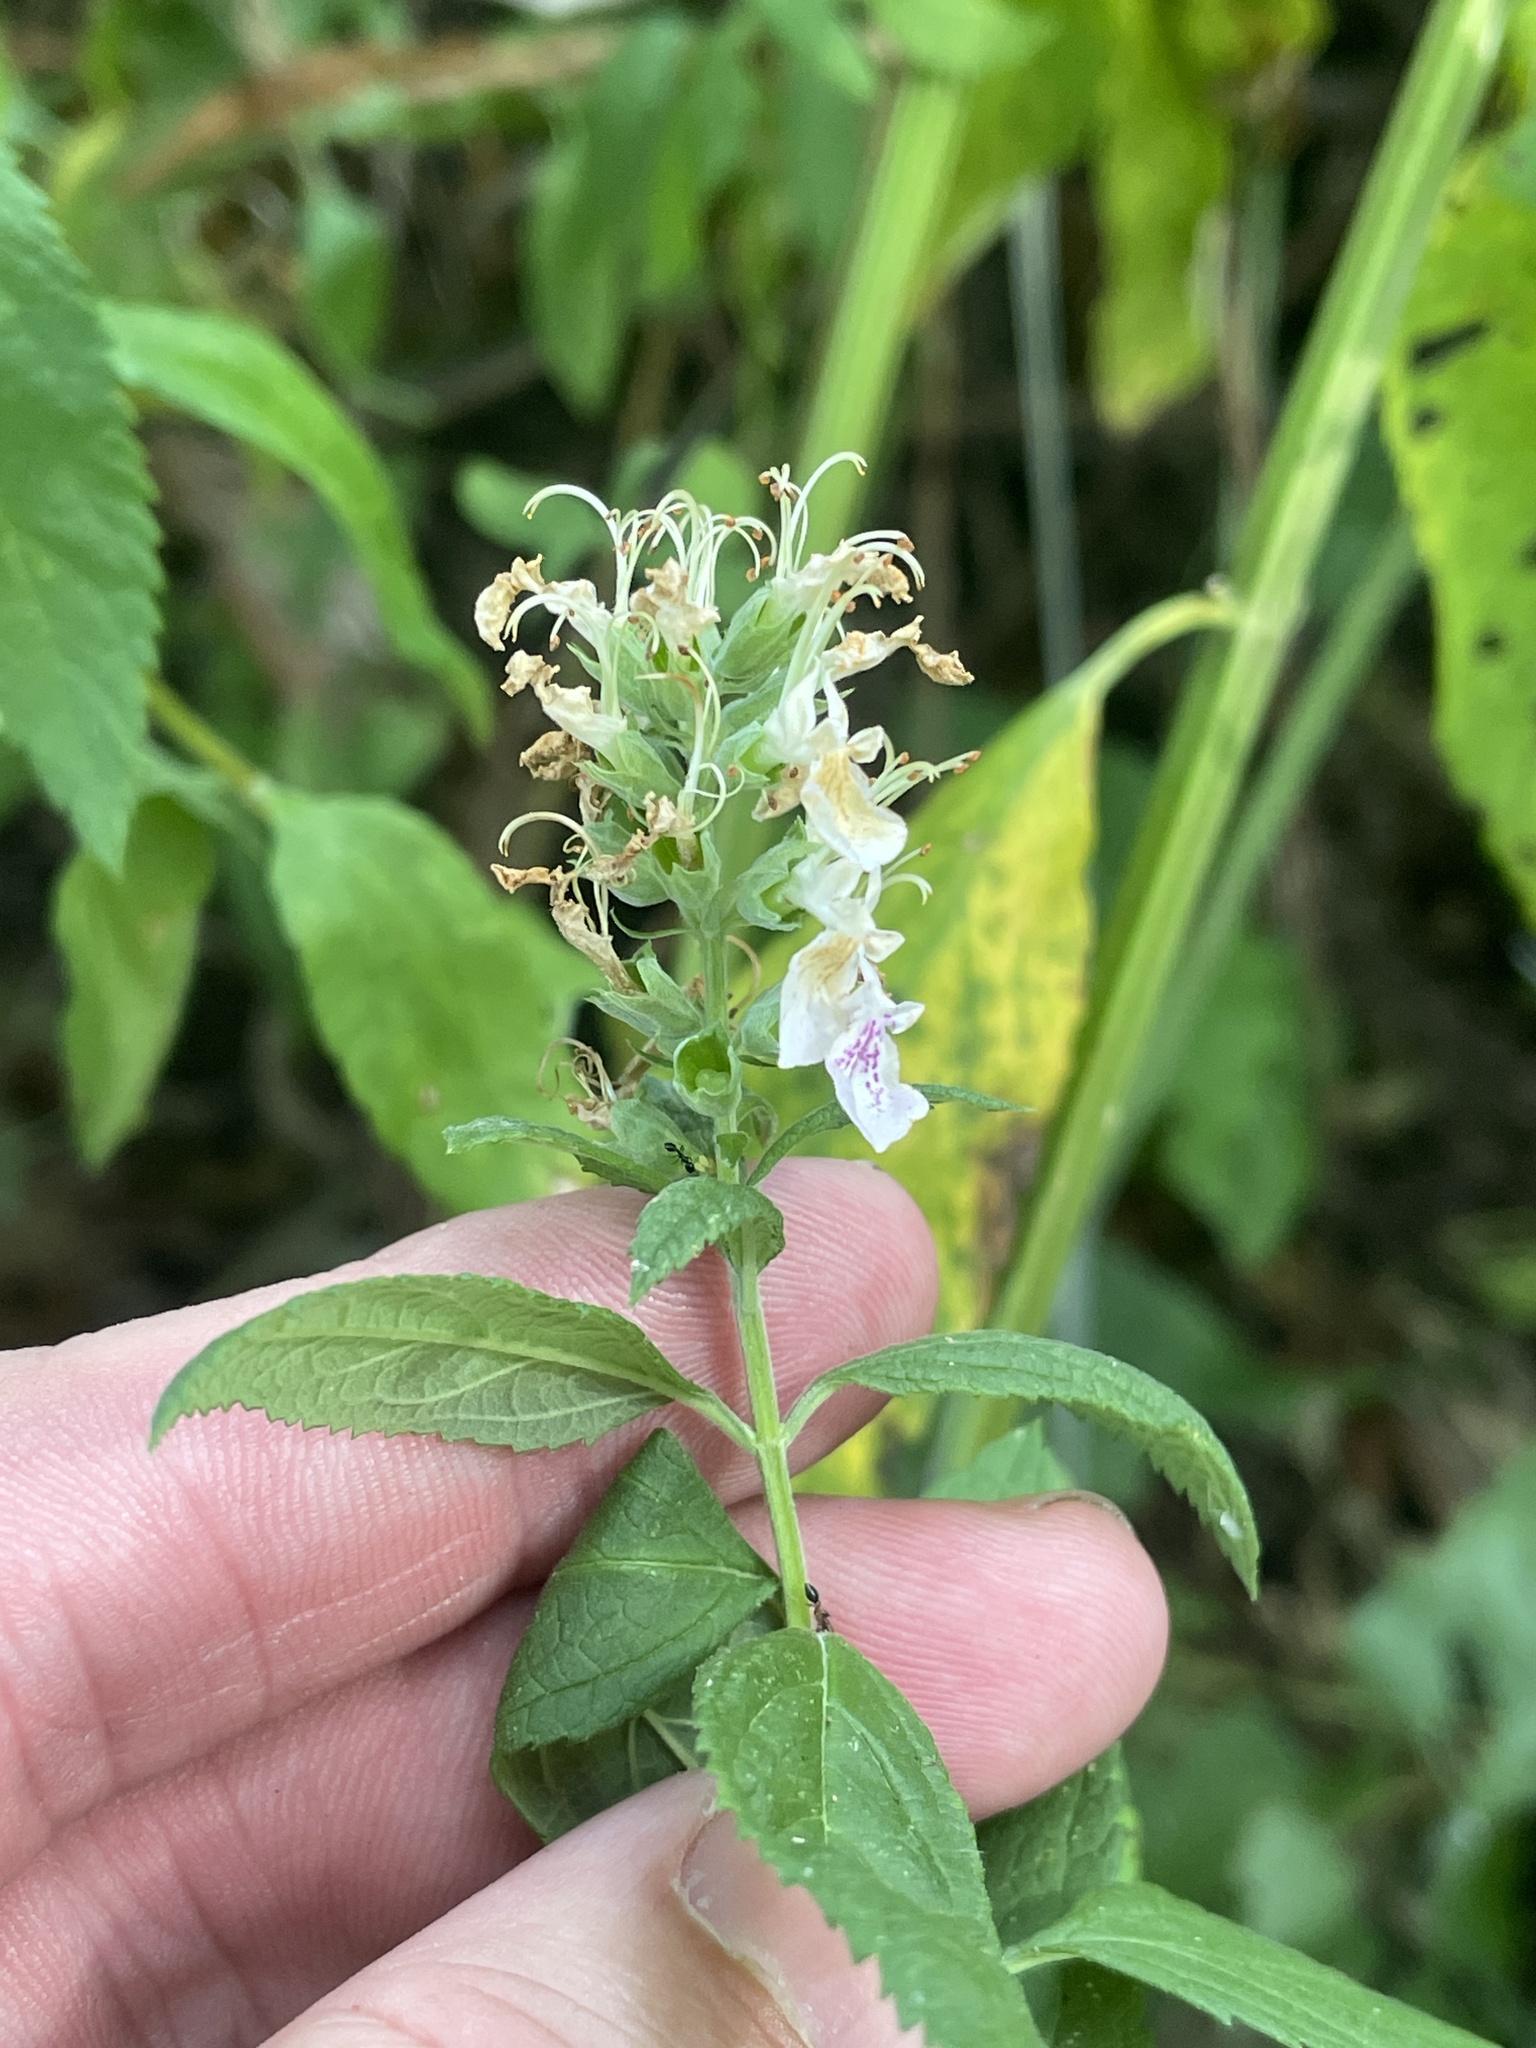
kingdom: Plantae
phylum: Tracheophyta
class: Magnoliopsida
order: Lamiales
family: Lamiaceae
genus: Teucrium
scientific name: Teucrium canadense
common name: American germander
